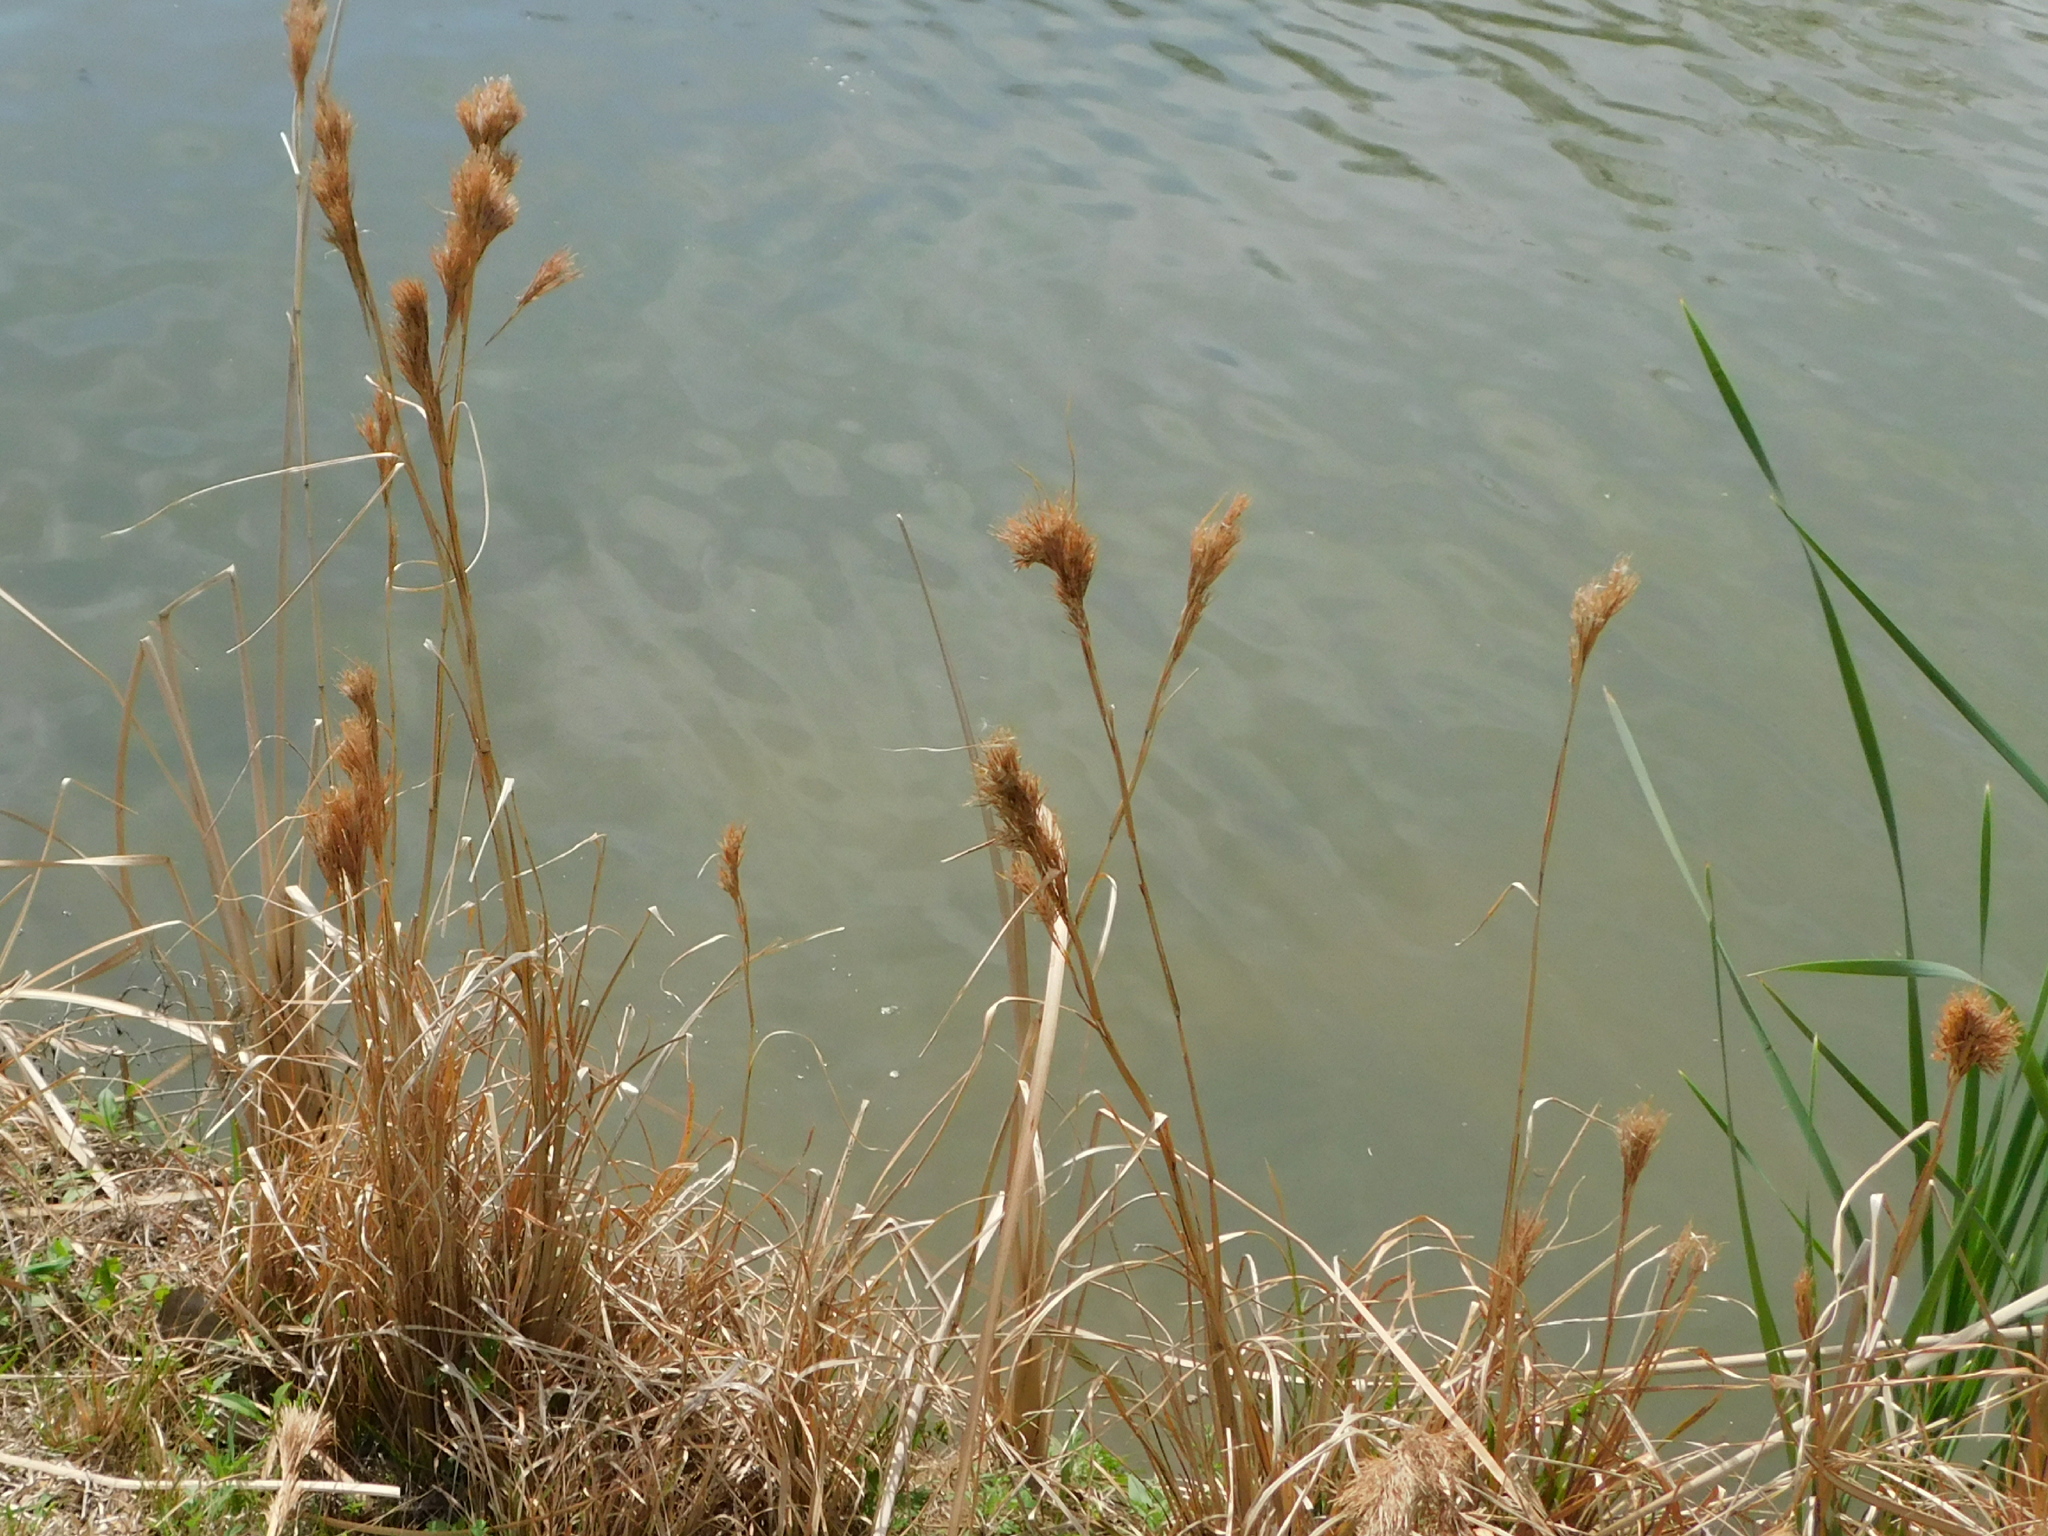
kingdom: Plantae
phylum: Tracheophyta
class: Liliopsida
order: Poales
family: Poaceae
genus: Andropogon
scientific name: Andropogon tenuispatheus
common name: Bushy bluestem
